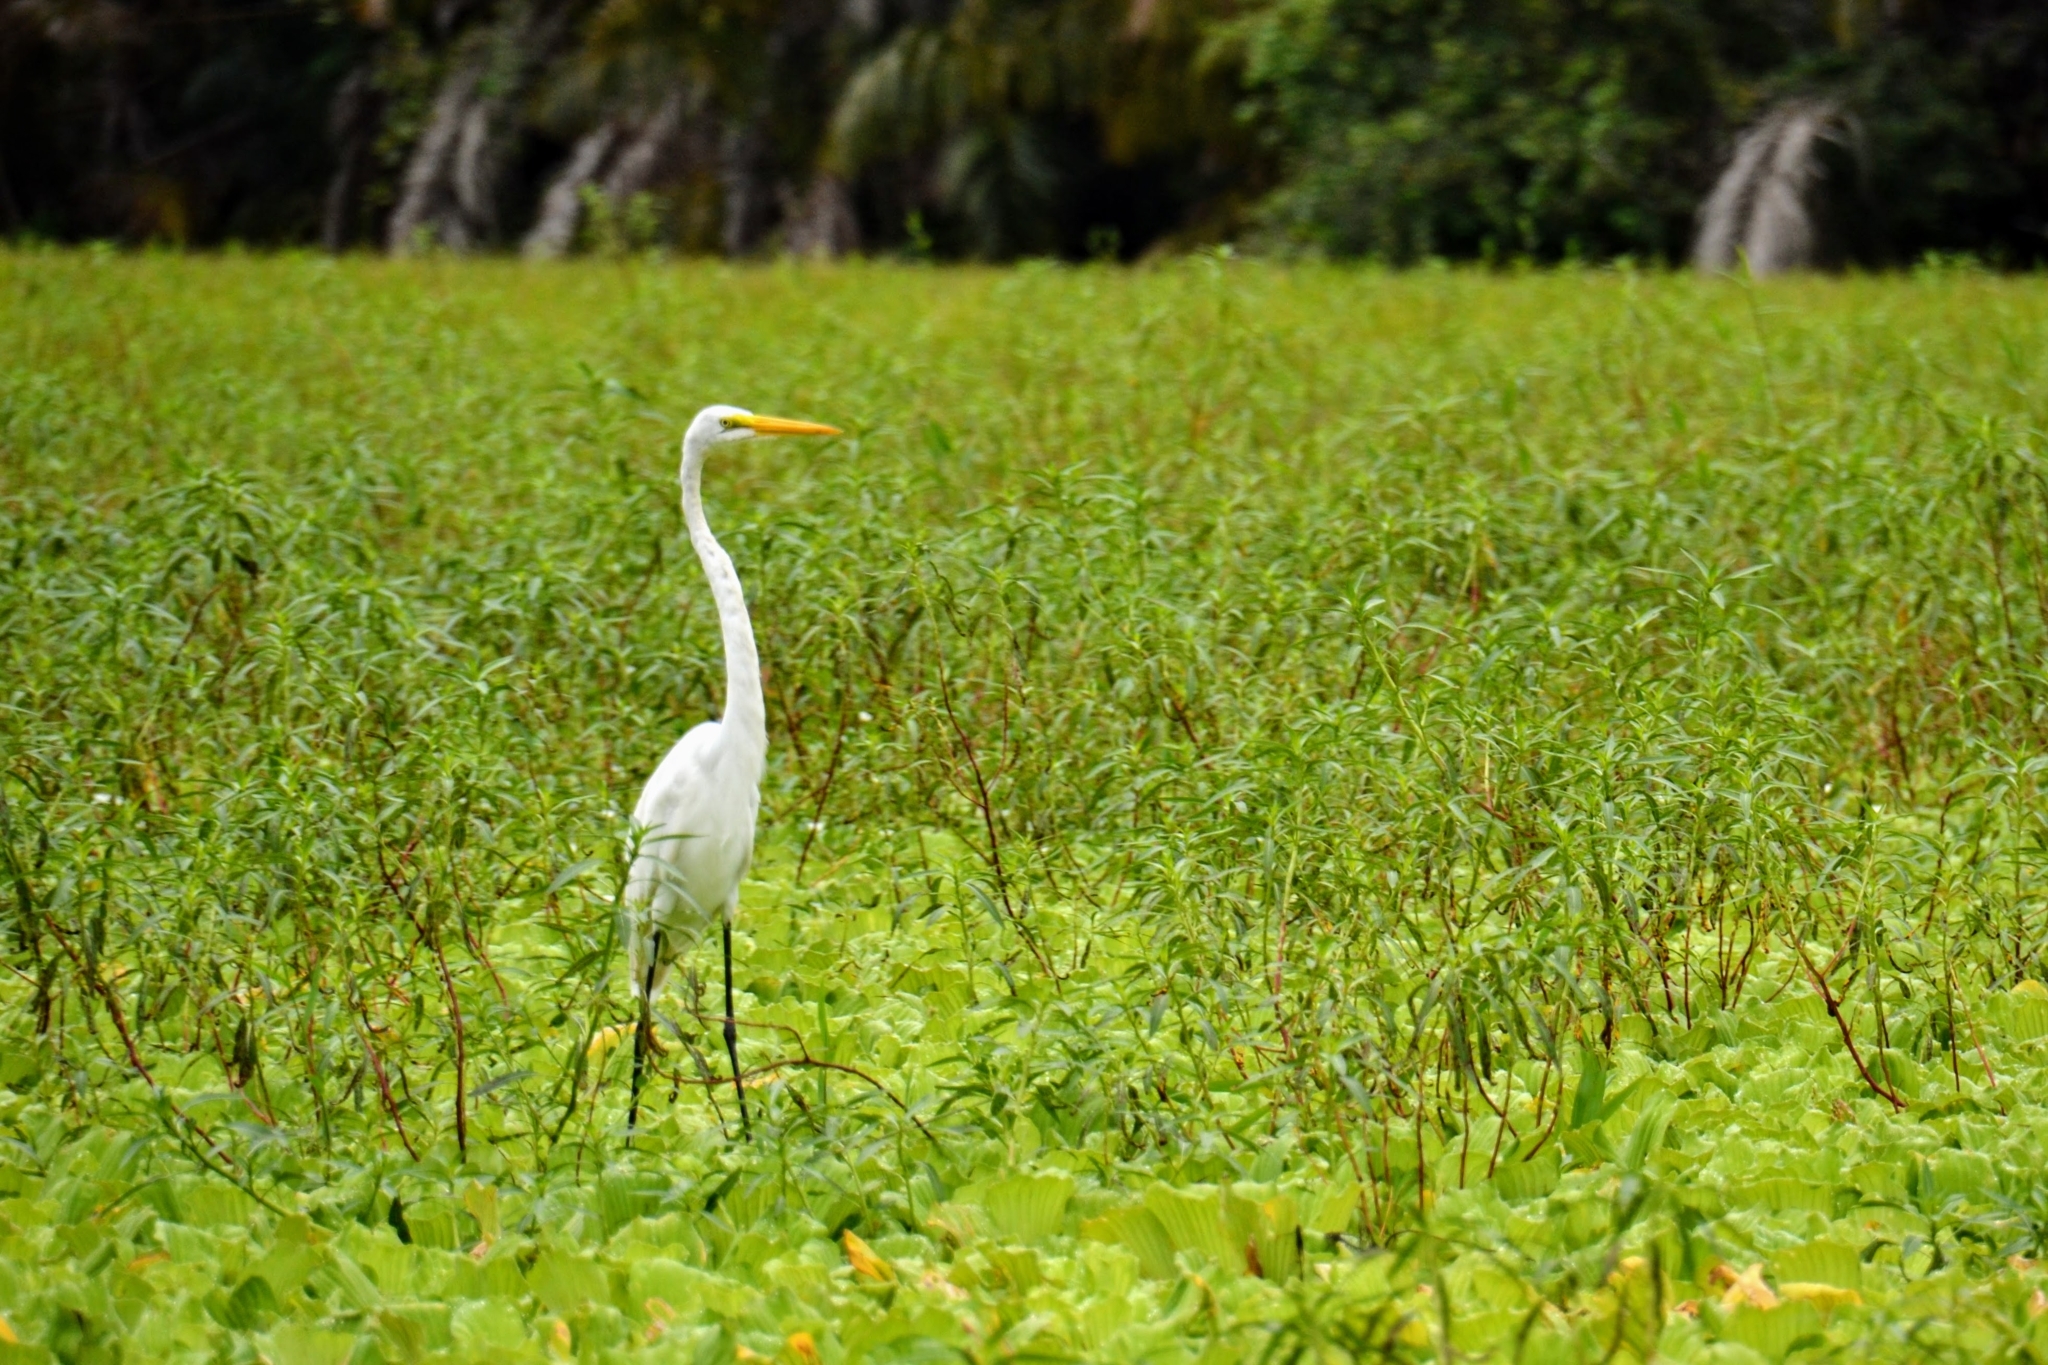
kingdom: Animalia
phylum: Chordata
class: Aves
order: Pelecaniformes
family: Ardeidae
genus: Ardea
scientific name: Ardea alba
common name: Great egret
